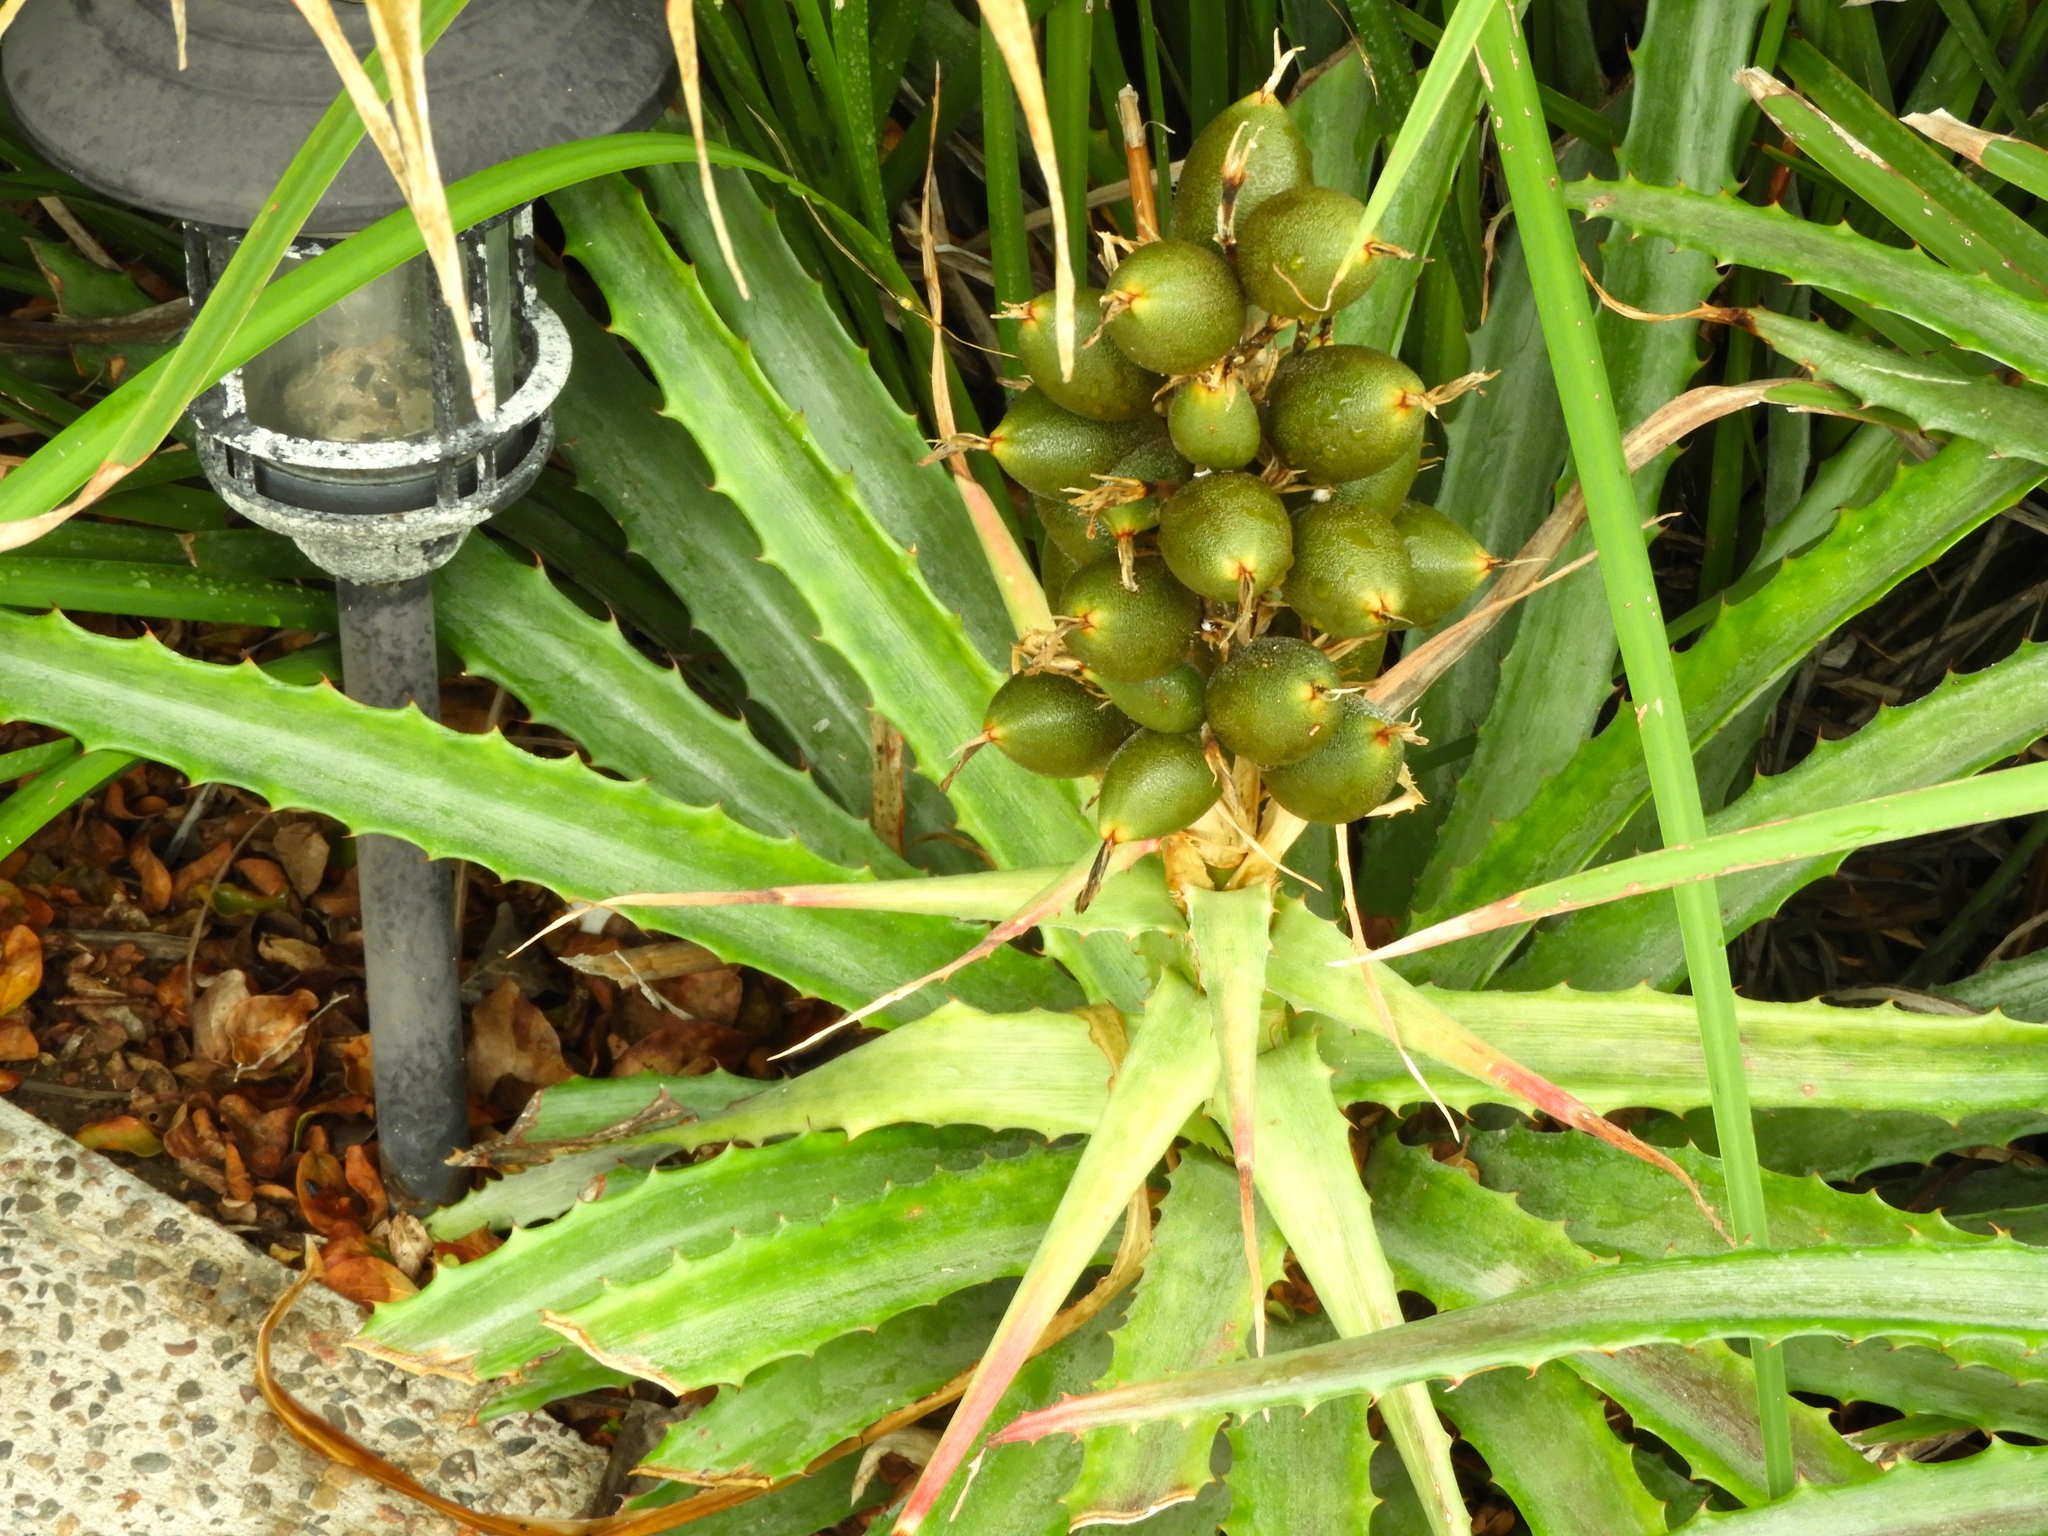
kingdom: Plantae
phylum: Tracheophyta
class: Liliopsida
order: Poales
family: Bromeliaceae
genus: Bromelia
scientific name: Bromelia pinguin
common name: Pinguin
